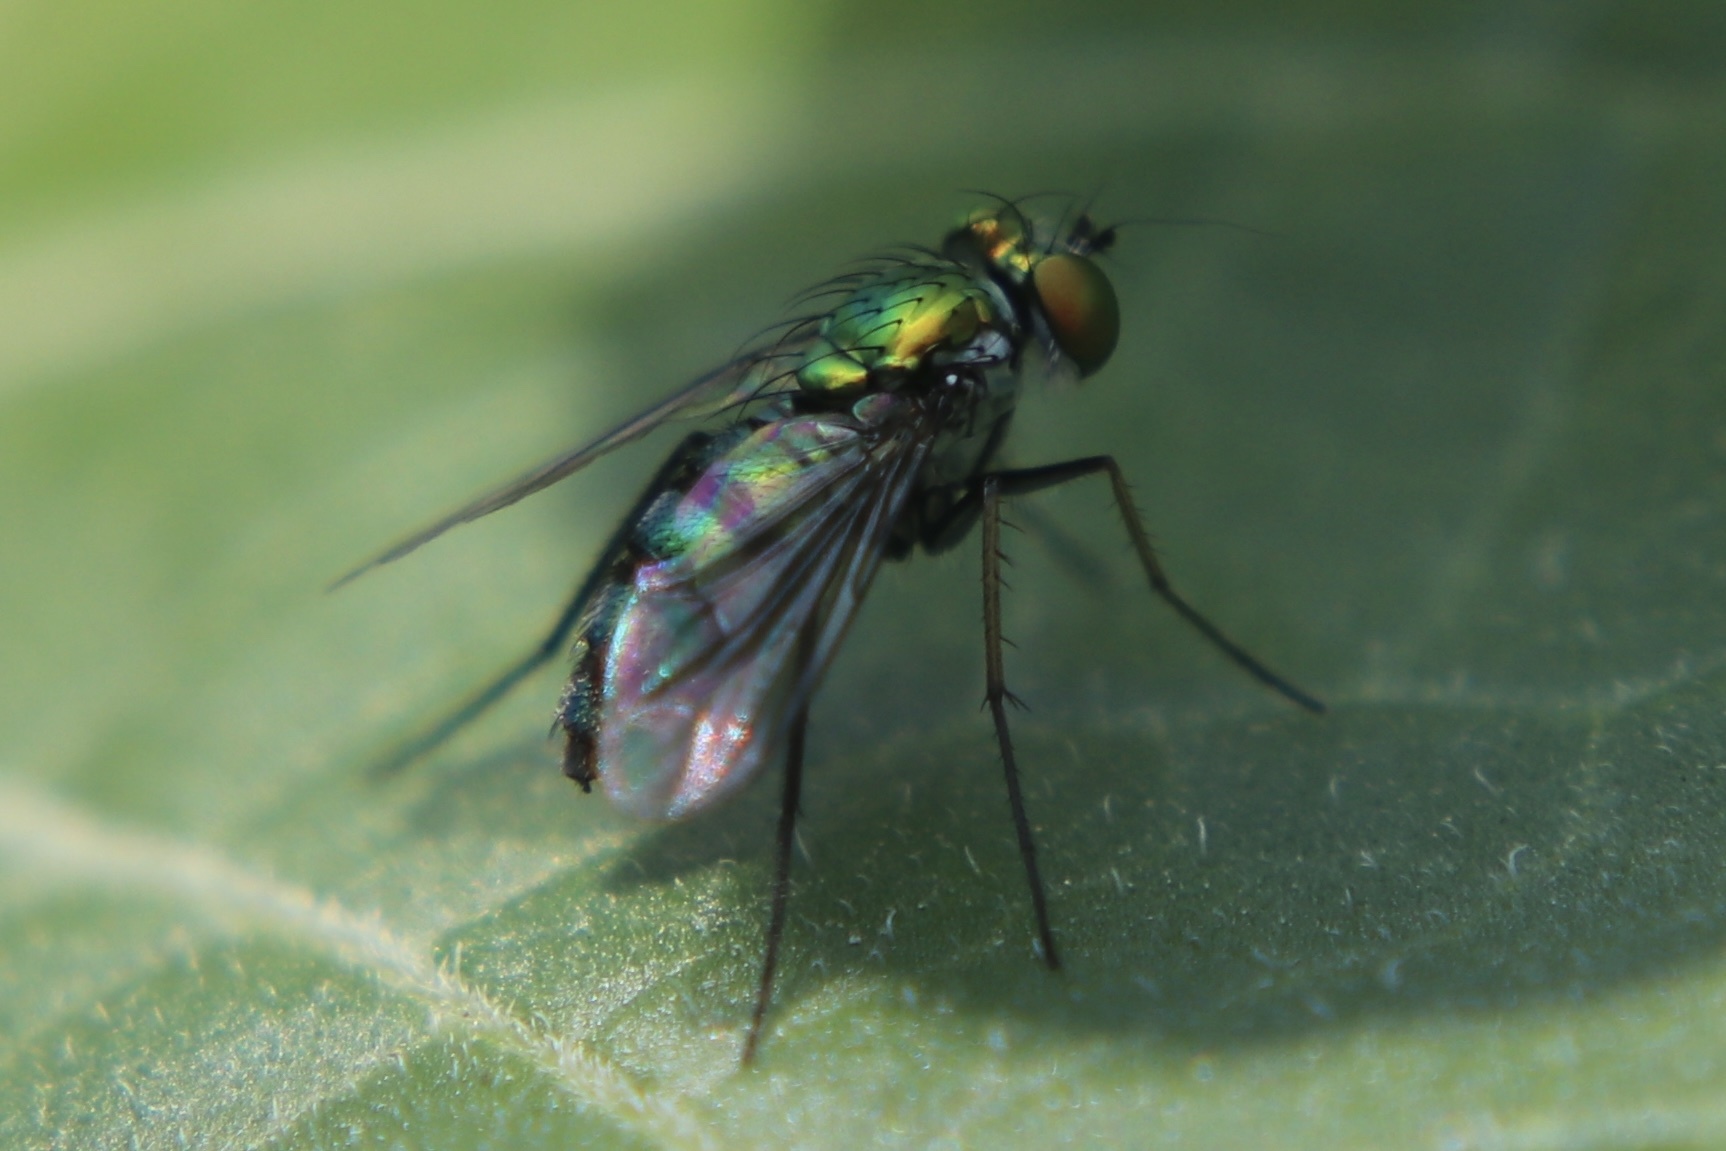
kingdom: Animalia
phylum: Arthropoda
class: Insecta
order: Diptera
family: Dolichopodidae
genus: Condylostylus
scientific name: Condylostylus longicornis
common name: Long-legged fly
